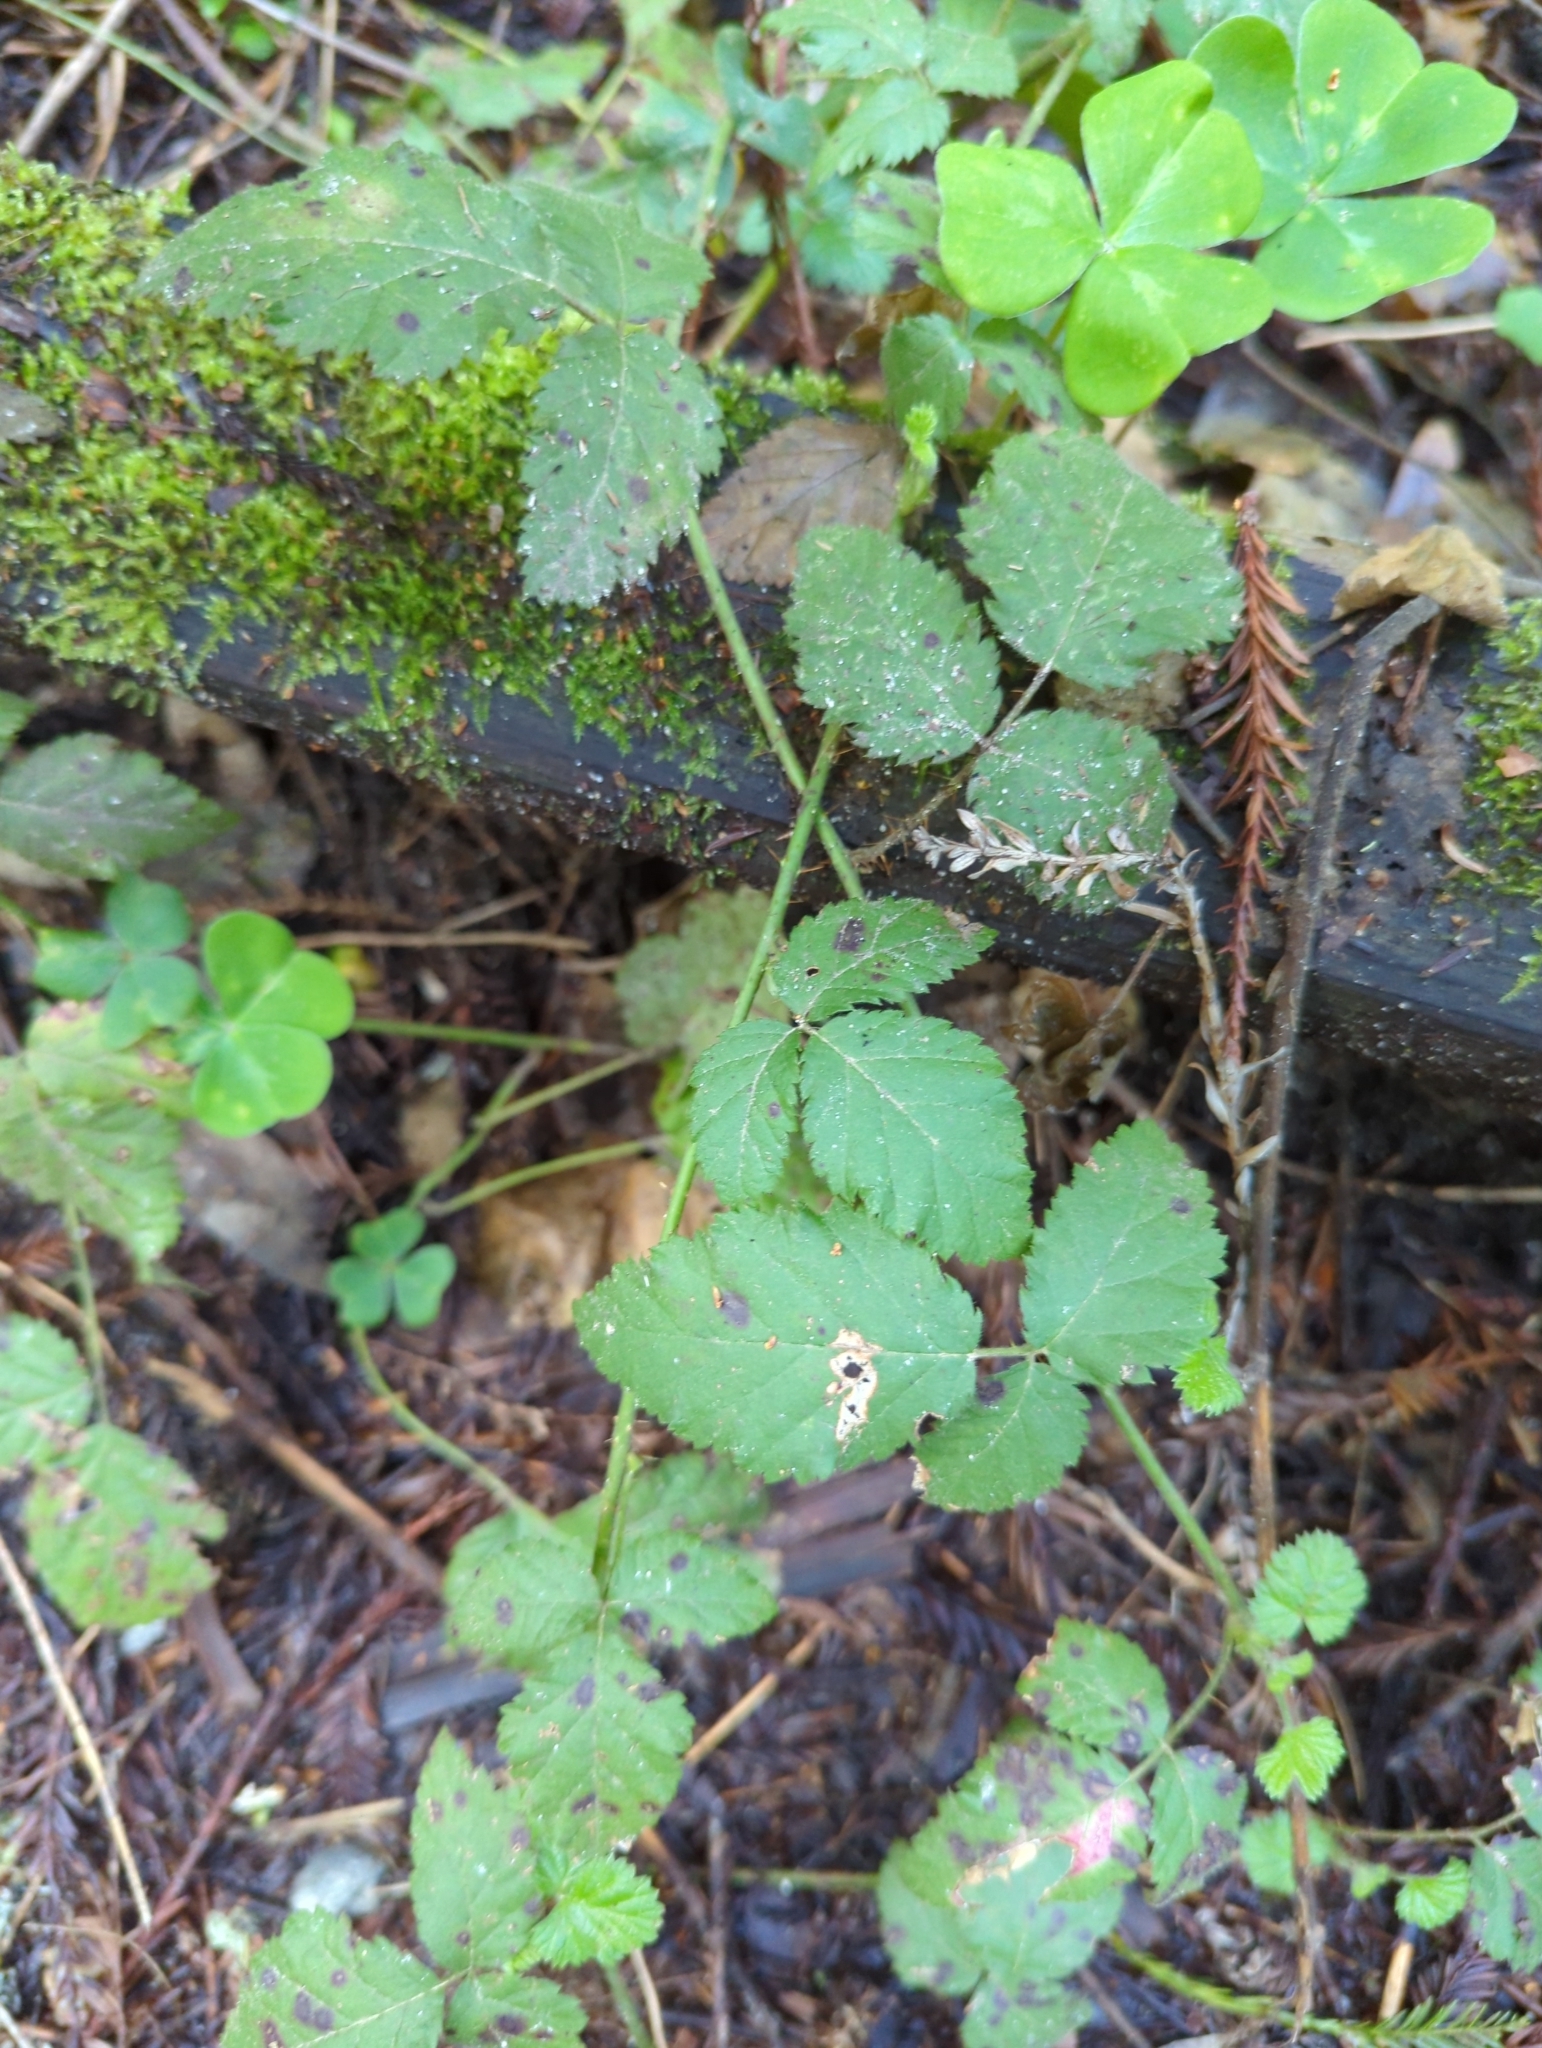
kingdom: Plantae
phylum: Tracheophyta
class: Magnoliopsida
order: Rosales
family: Rosaceae
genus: Rubus
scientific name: Rubus ursinus
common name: Pacific blackberry
